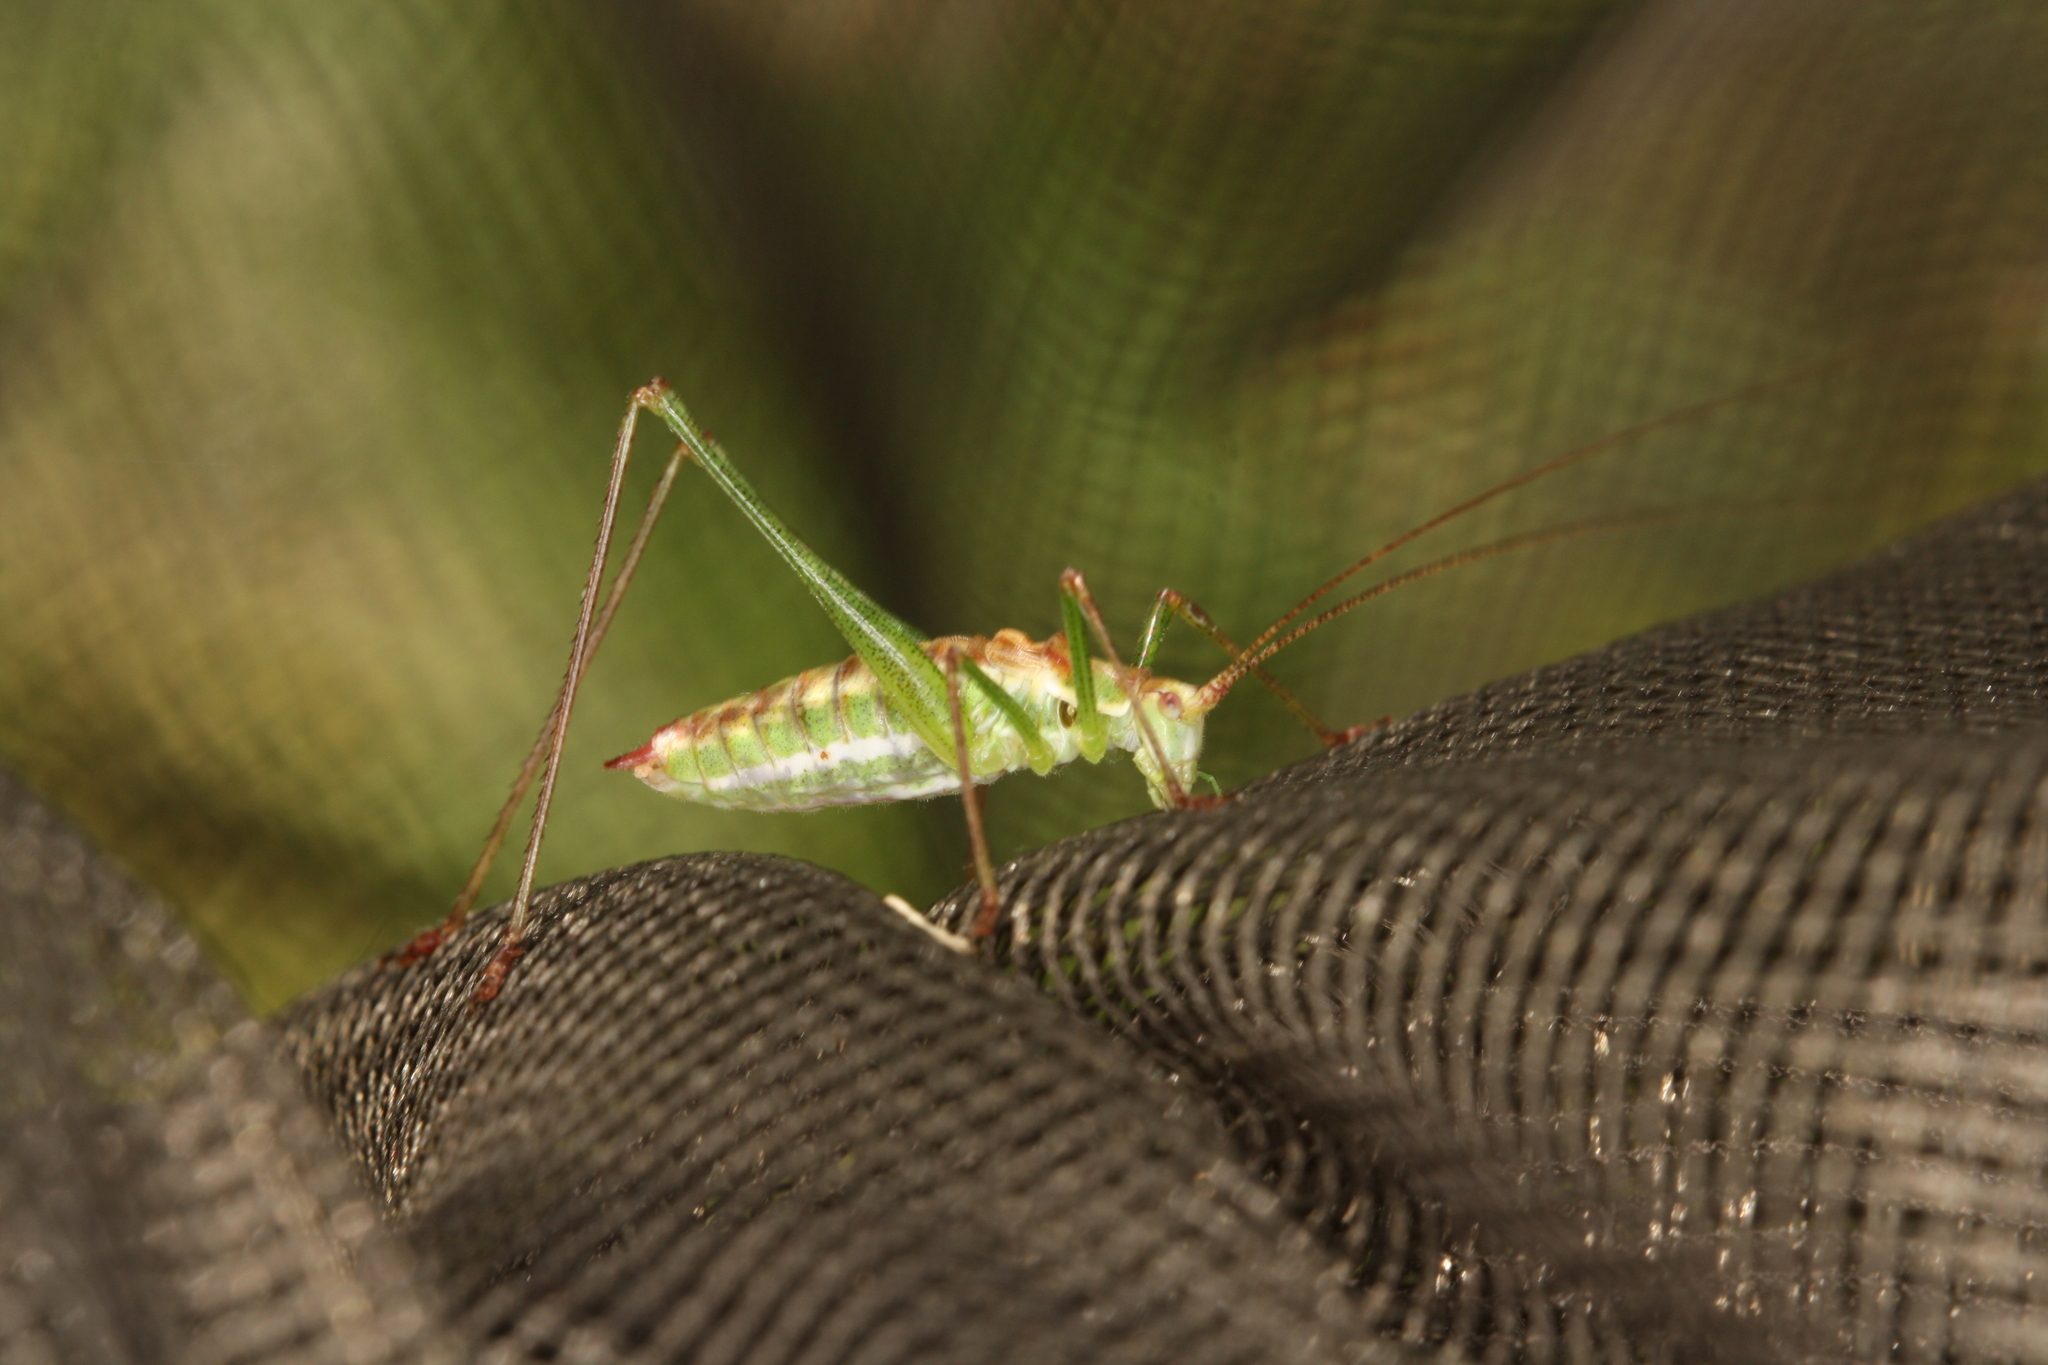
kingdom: Animalia
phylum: Arthropoda
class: Insecta
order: Orthoptera
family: Tettigoniidae
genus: Leptophyes
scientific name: Leptophyes albovittata
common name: Striped bush-cricket
